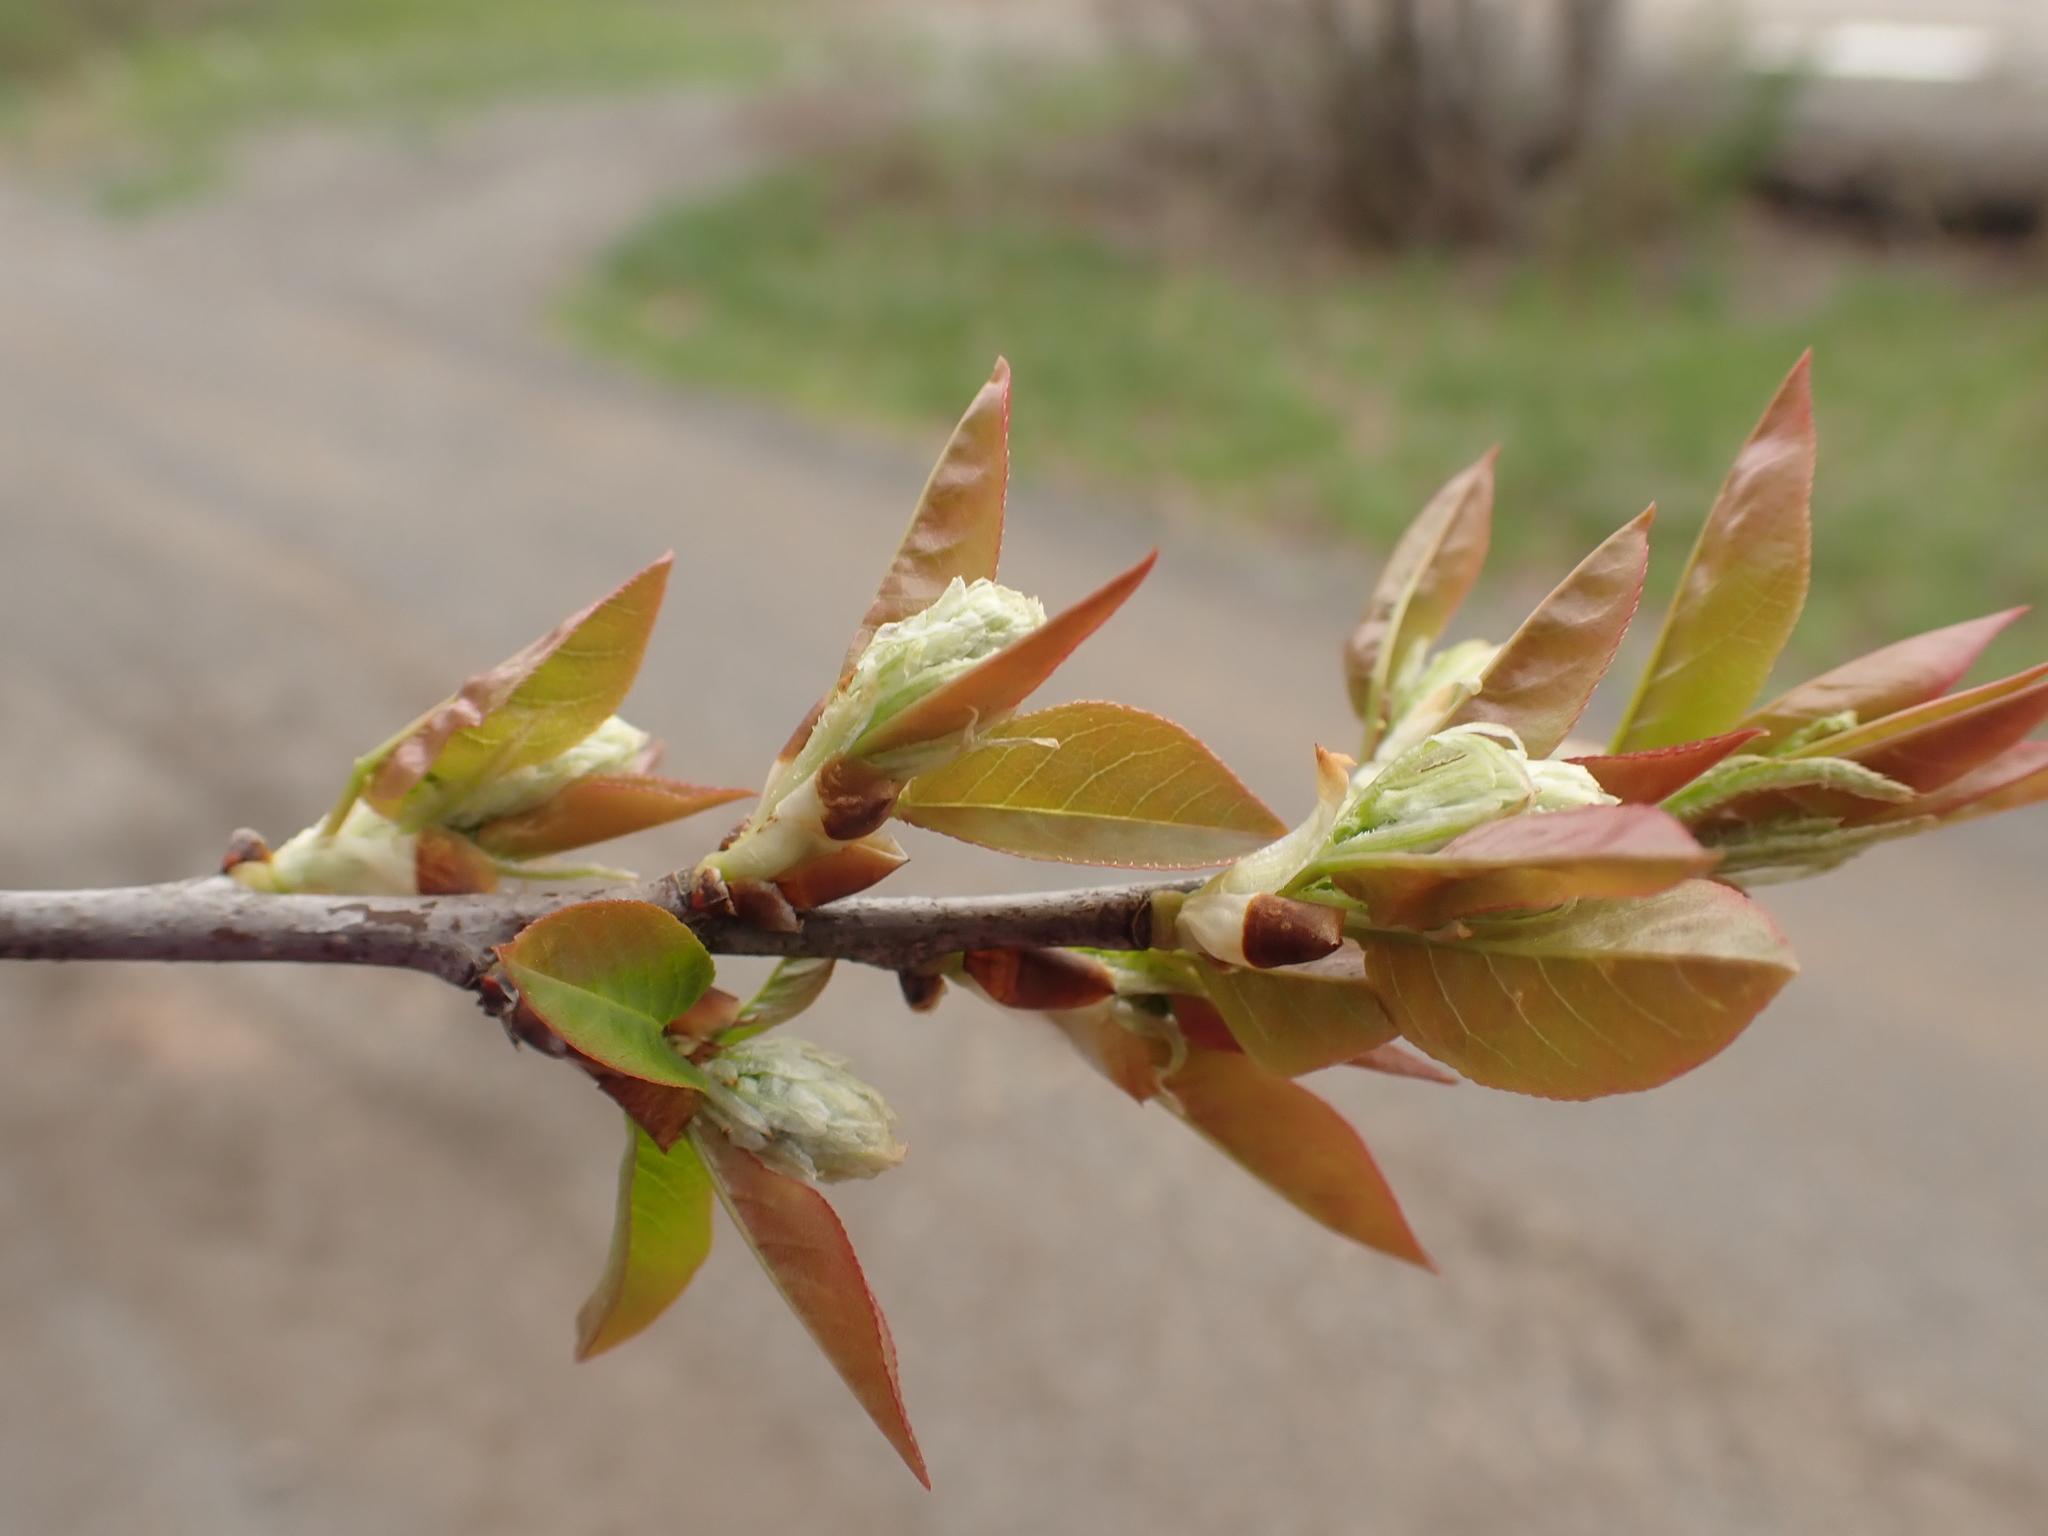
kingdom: Plantae
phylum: Tracheophyta
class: Magnoliopsida
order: Rosales
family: Rosaceae
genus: Prunus
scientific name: Prunus virginiana
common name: Chokecherry
